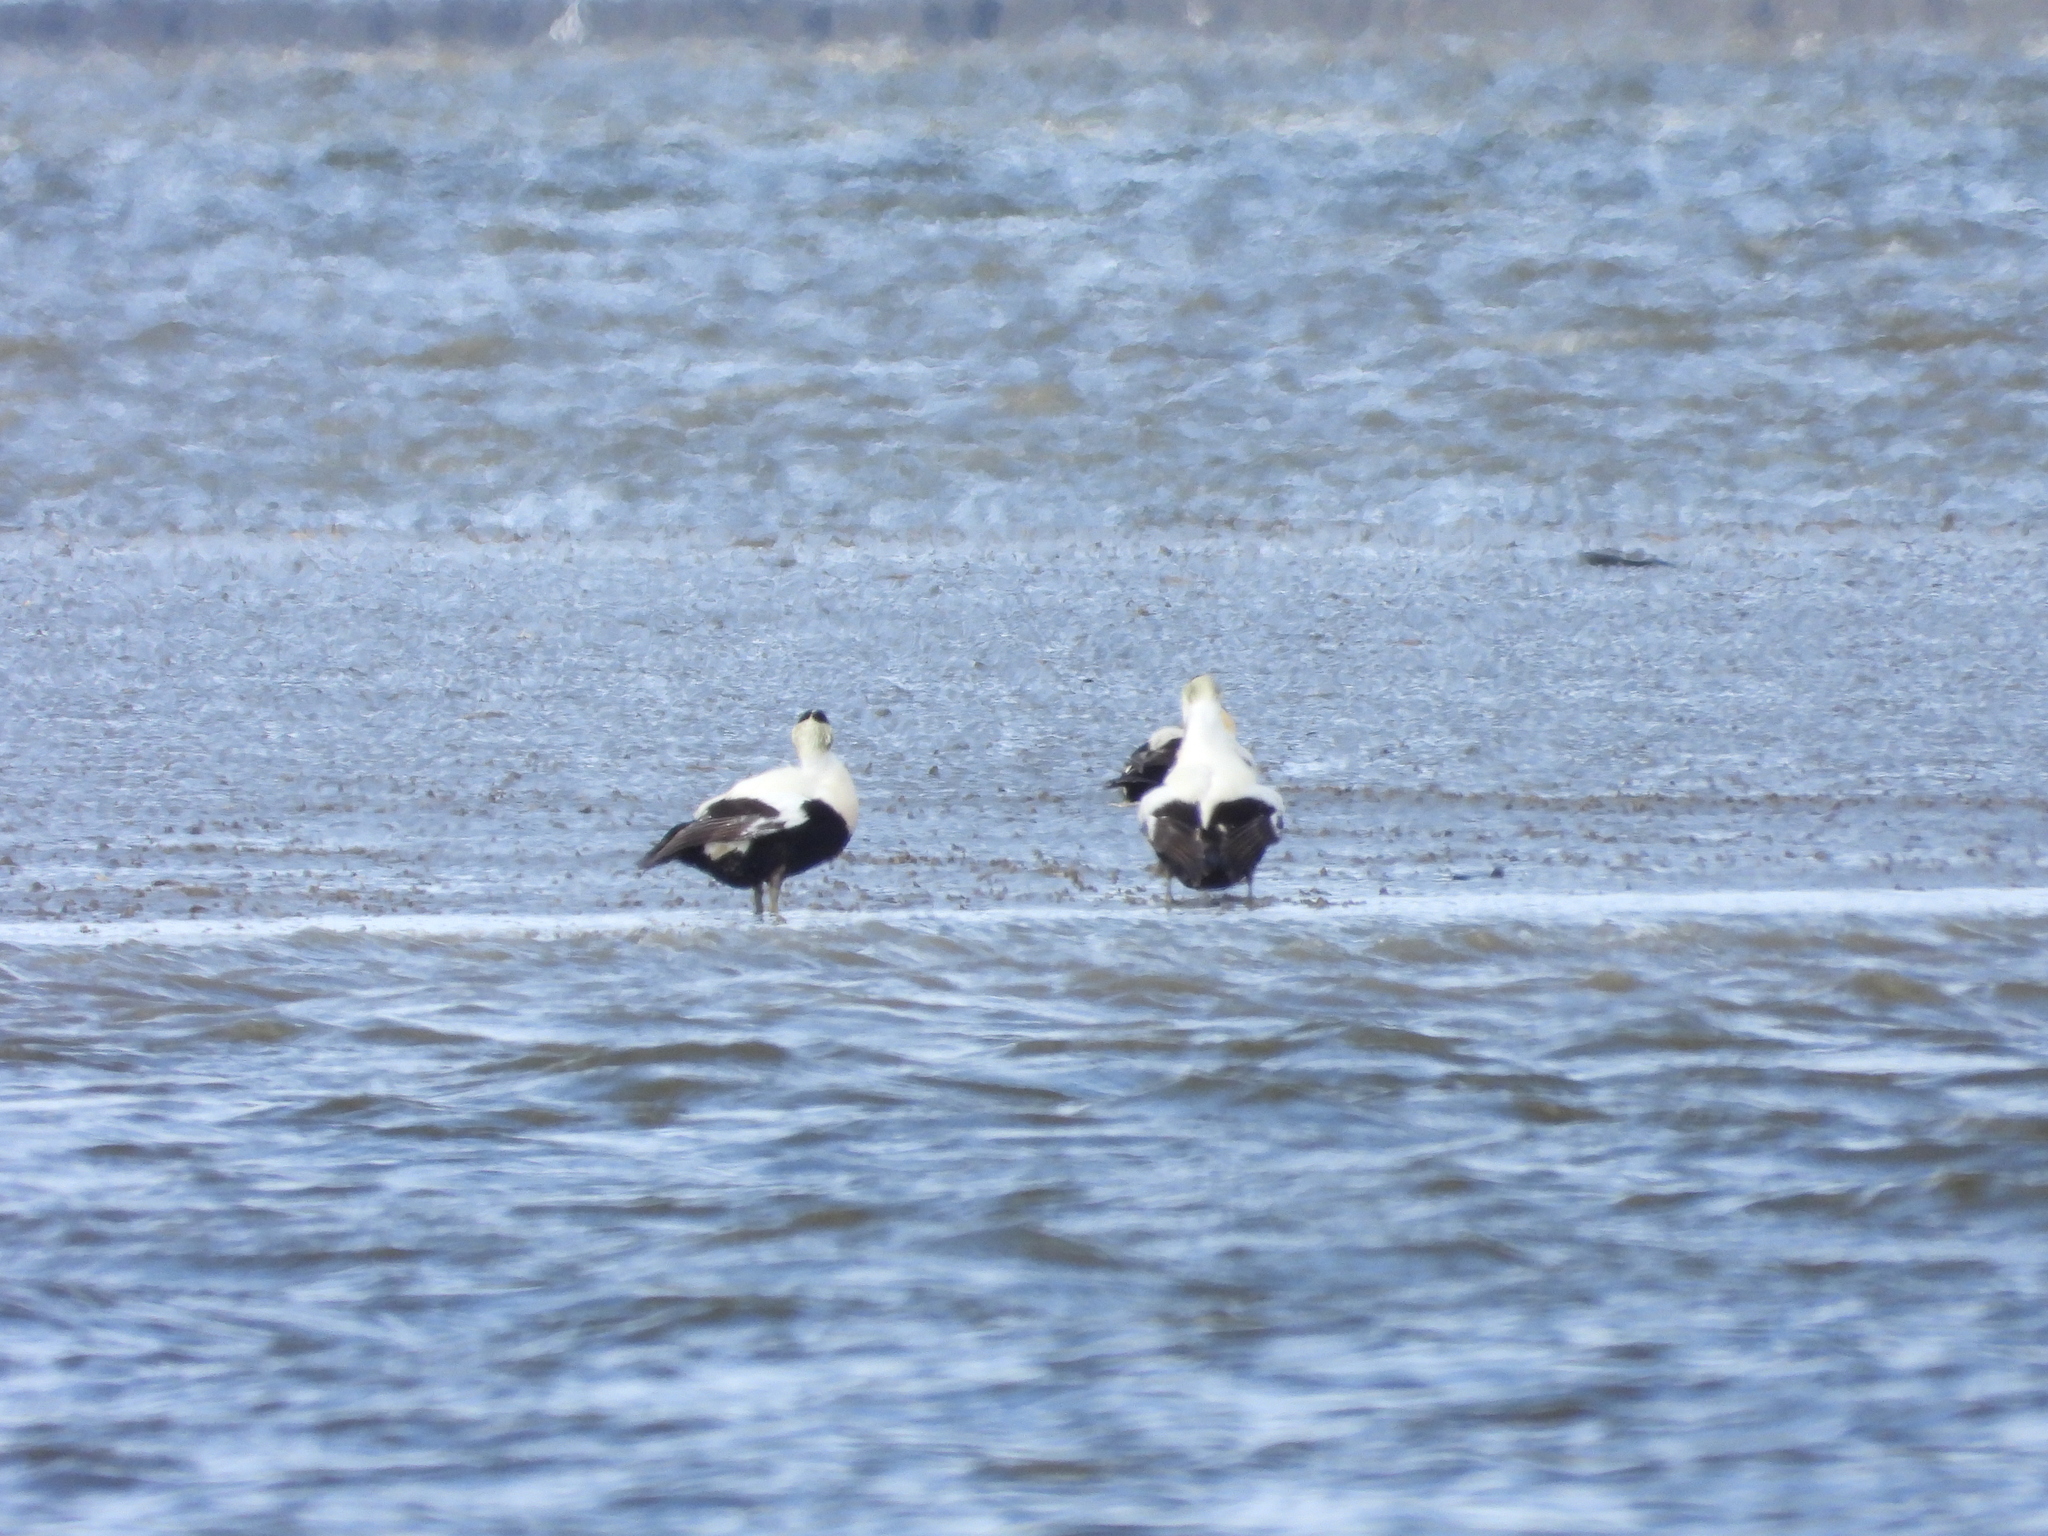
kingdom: Animalia
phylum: Chordata
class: Aves
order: Anseriformes
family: Anatidae
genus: Somateria
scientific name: Somateria mollissima
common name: Common eider
